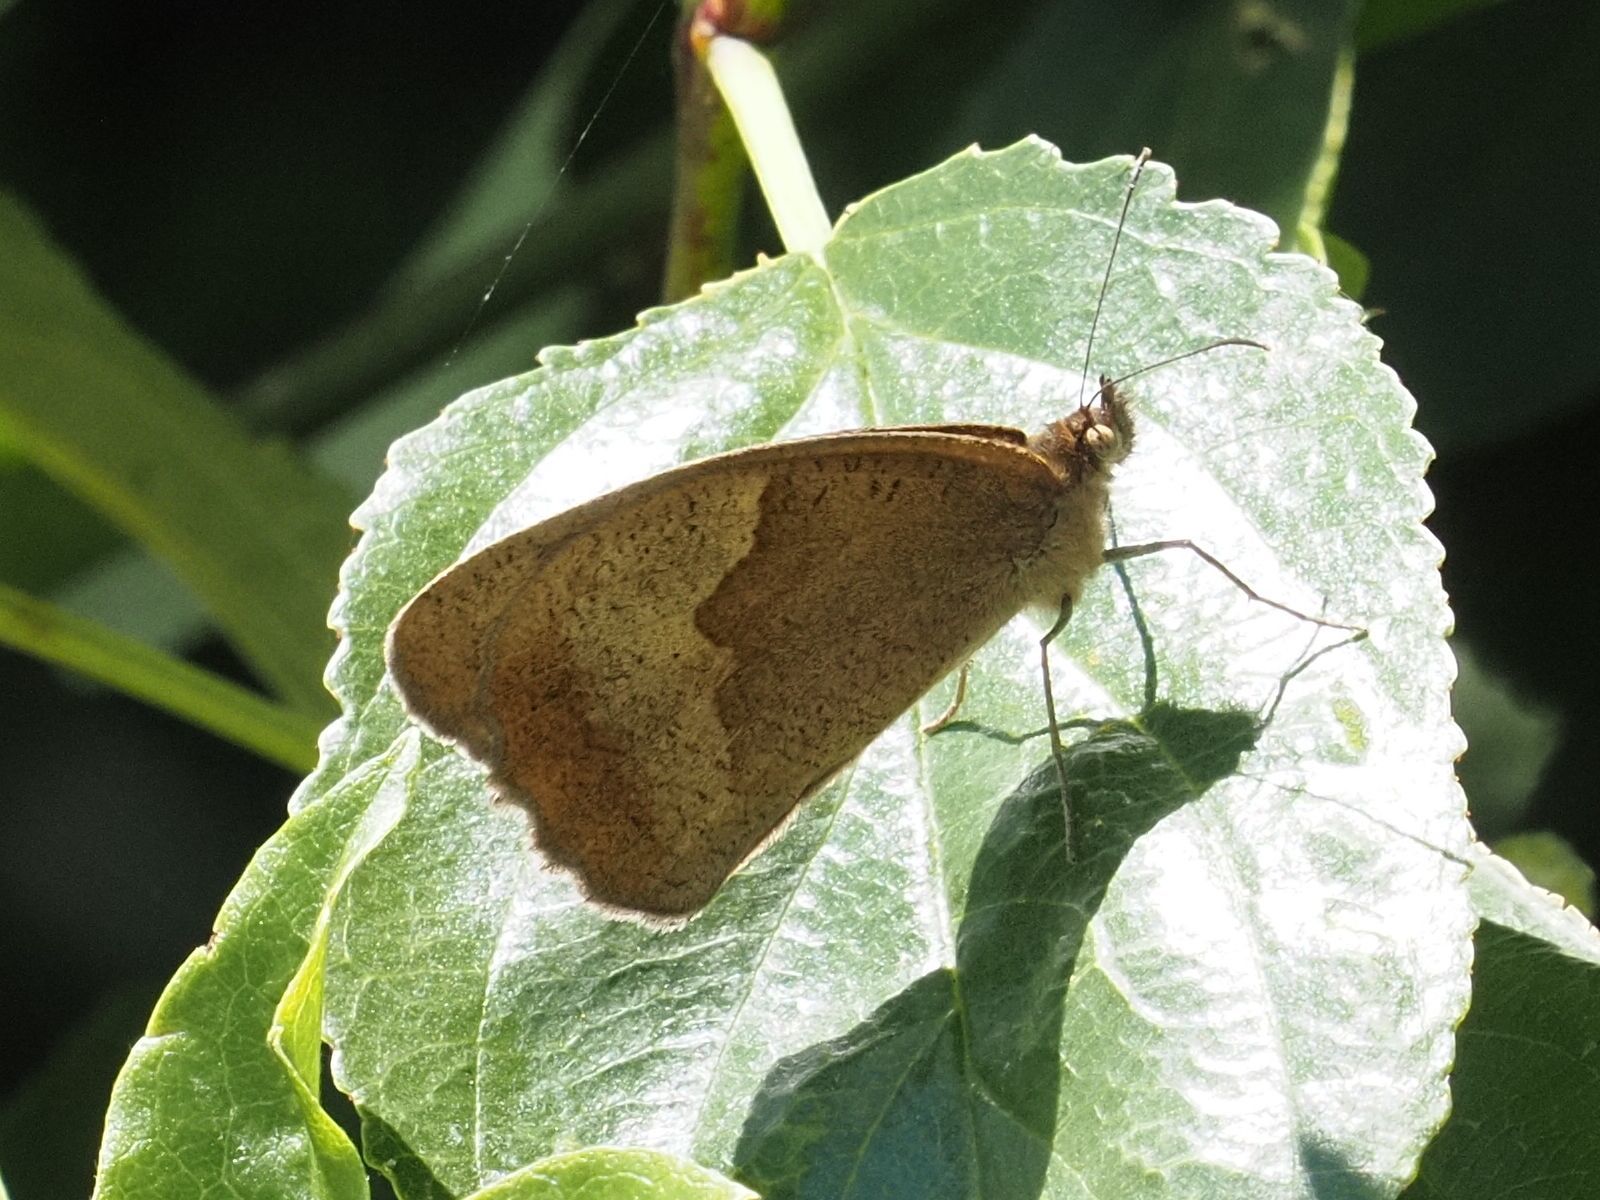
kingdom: Animalia
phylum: Arthropoda
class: Insecta
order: Lepidoptera
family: Nymphalidae
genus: Maniola
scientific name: Maniola jurtina
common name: Meadow brown
